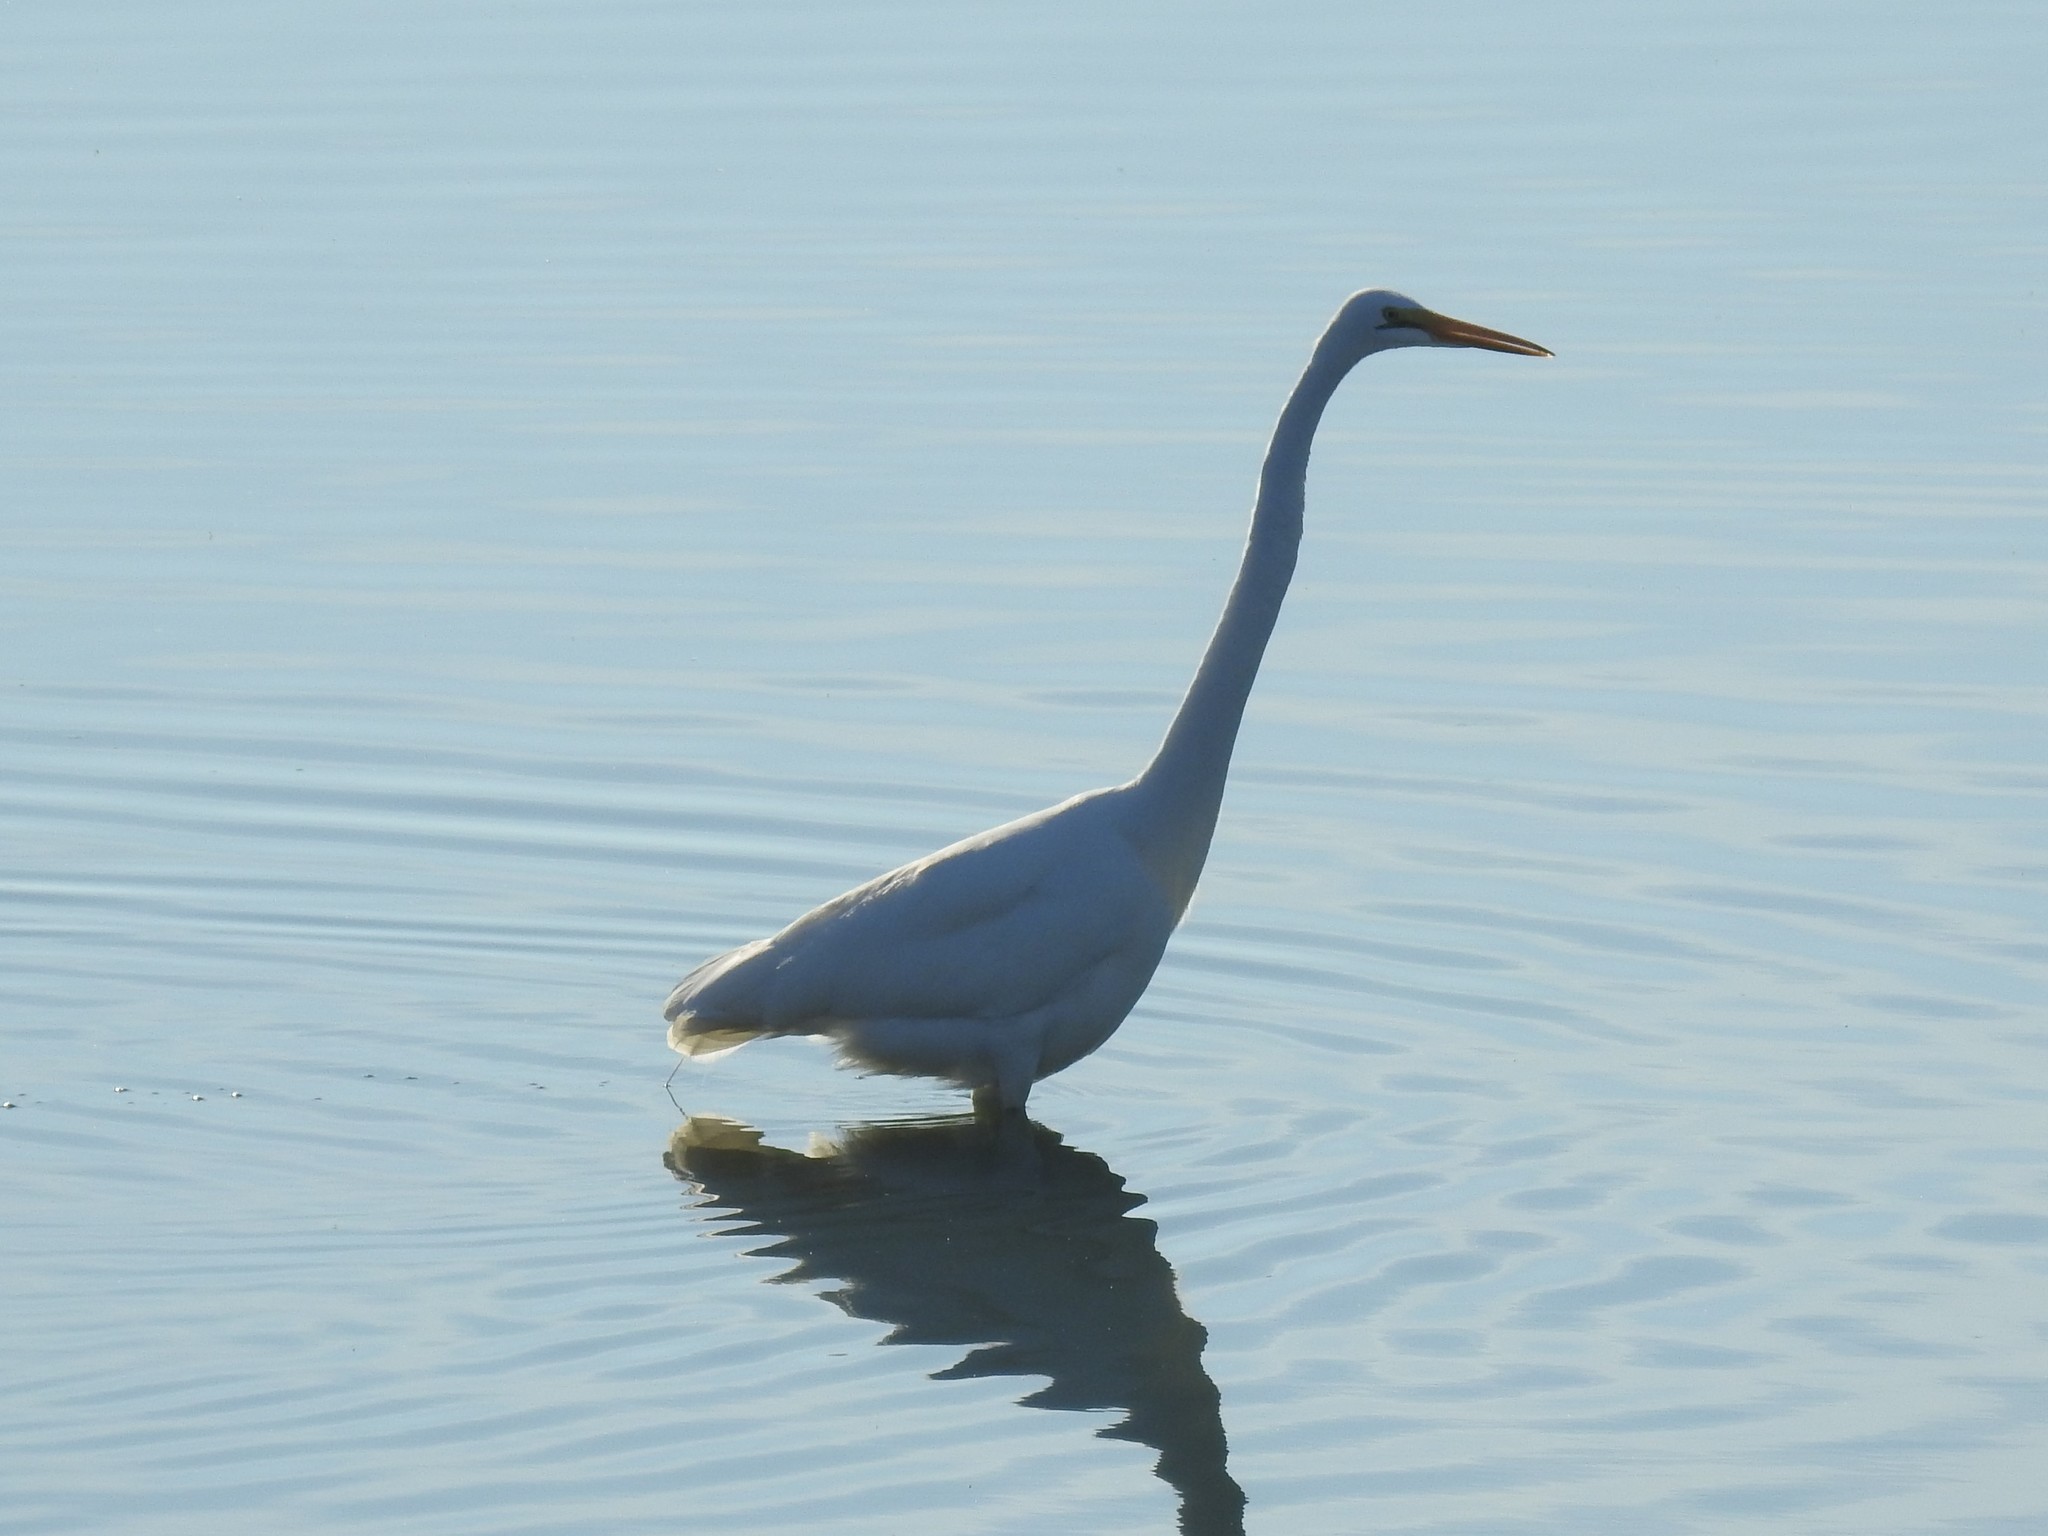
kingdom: Animalia
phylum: Chordata
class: Aves
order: Pelecaniformes
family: Ardeidae
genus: Ardea
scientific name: Ardea alba
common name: Great egret
